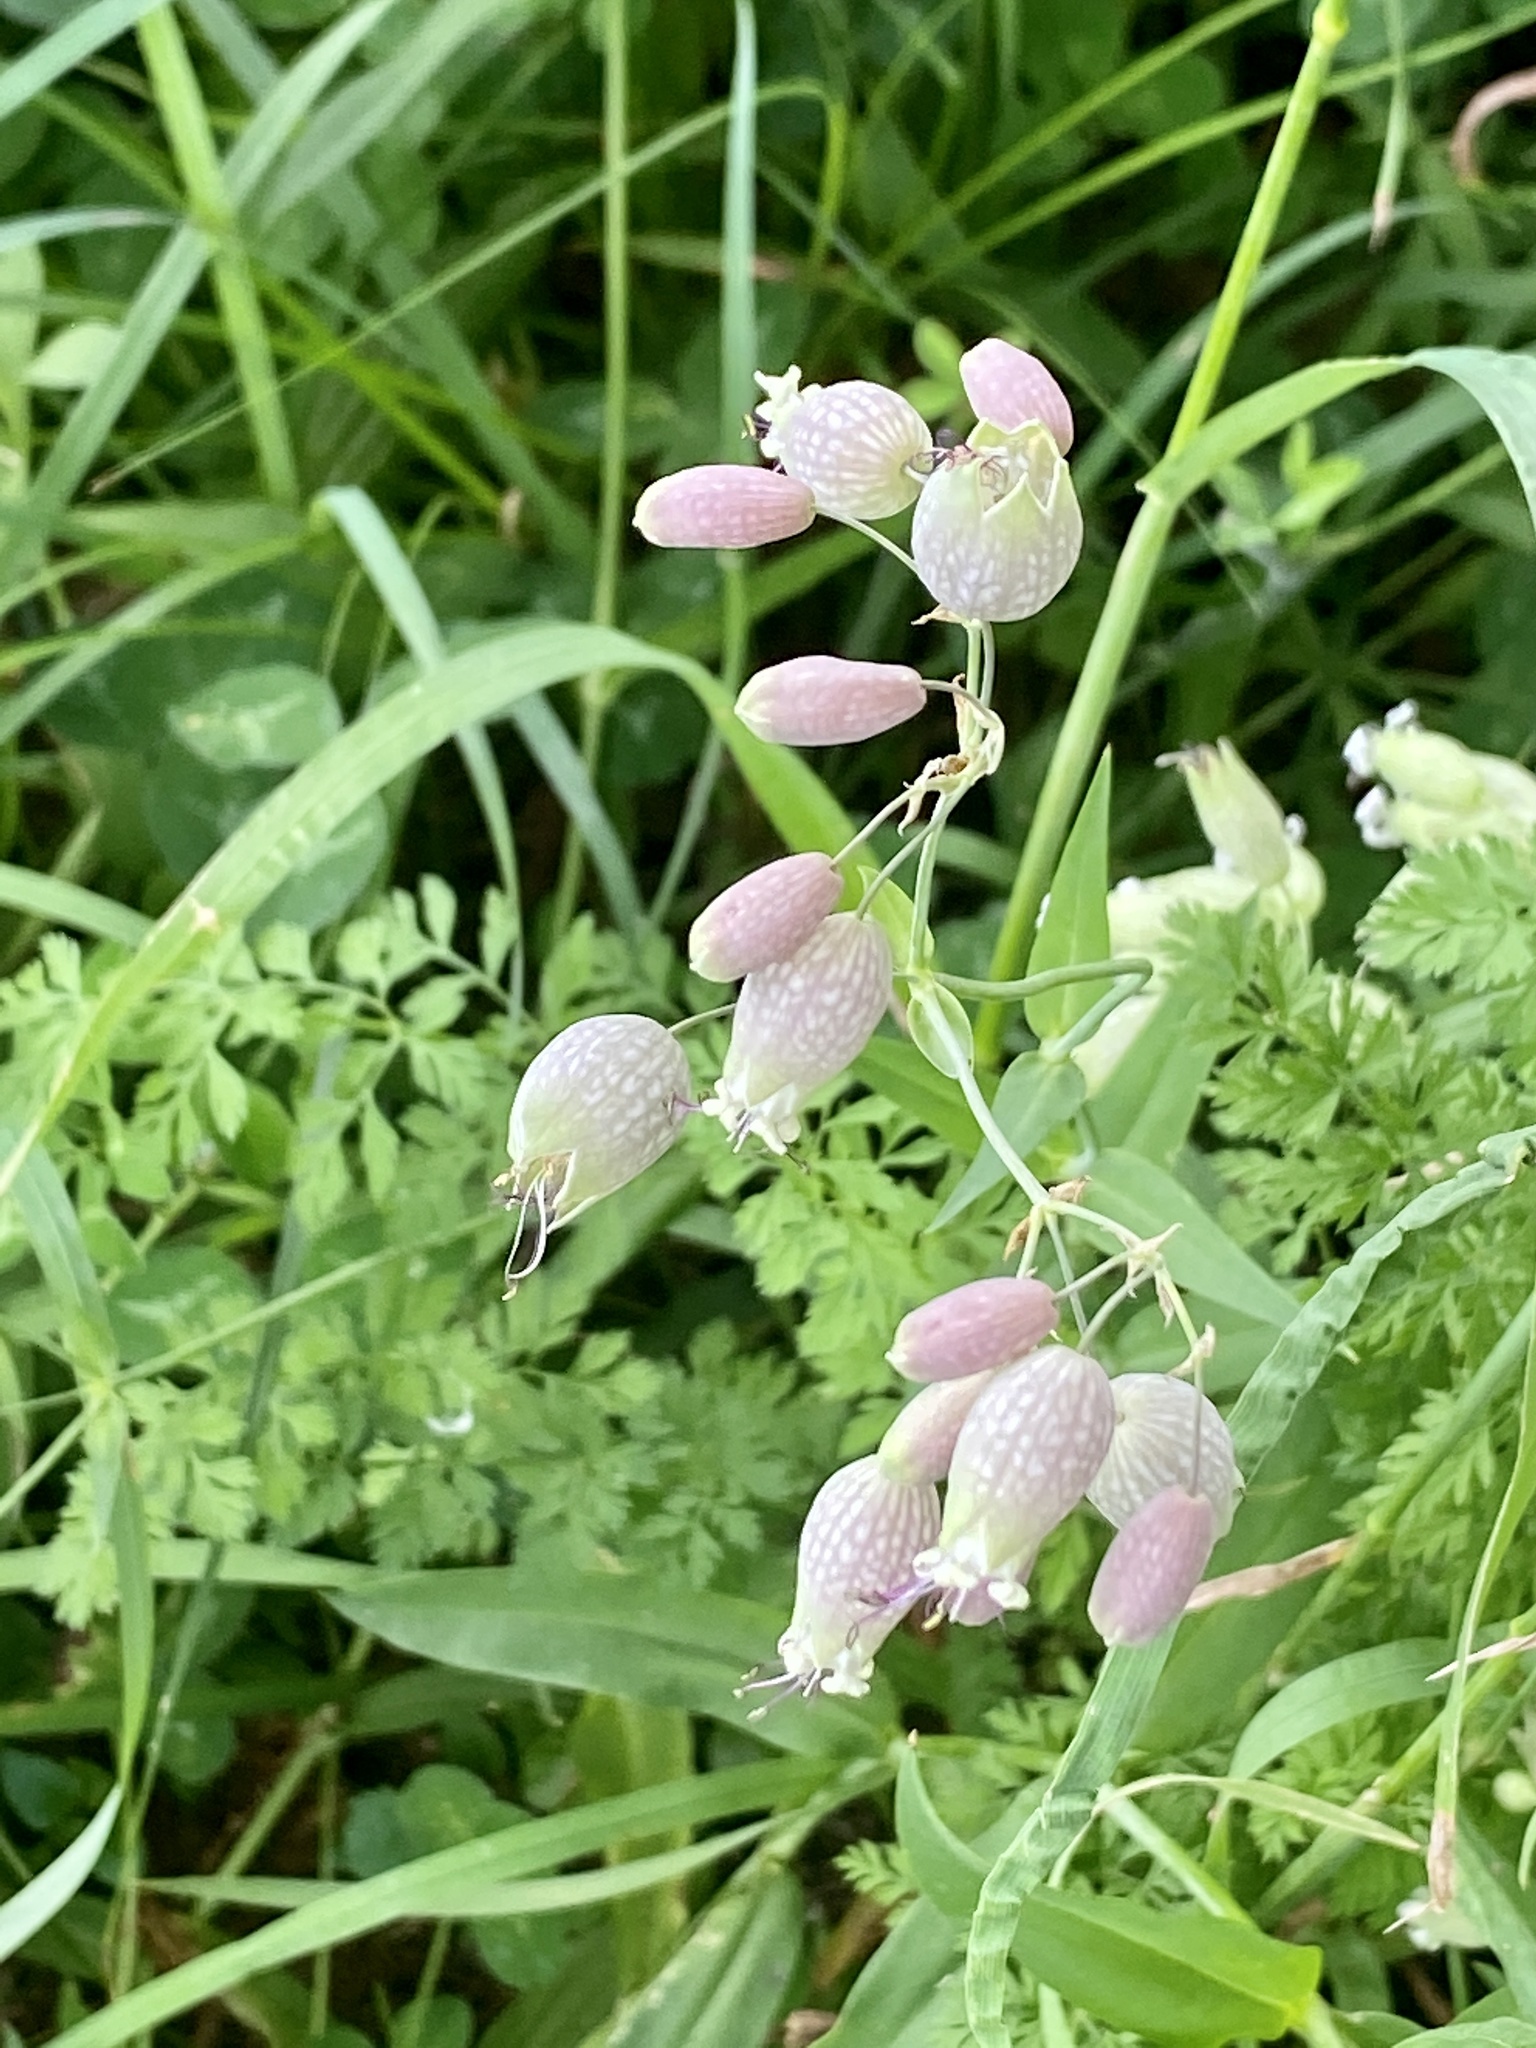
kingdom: Plantae
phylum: Tracheophyta
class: Magnoliopsida
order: Caryophyllales
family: Caryophyllaceae
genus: Silene
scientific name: Silene vulgaris
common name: Bladder campion
